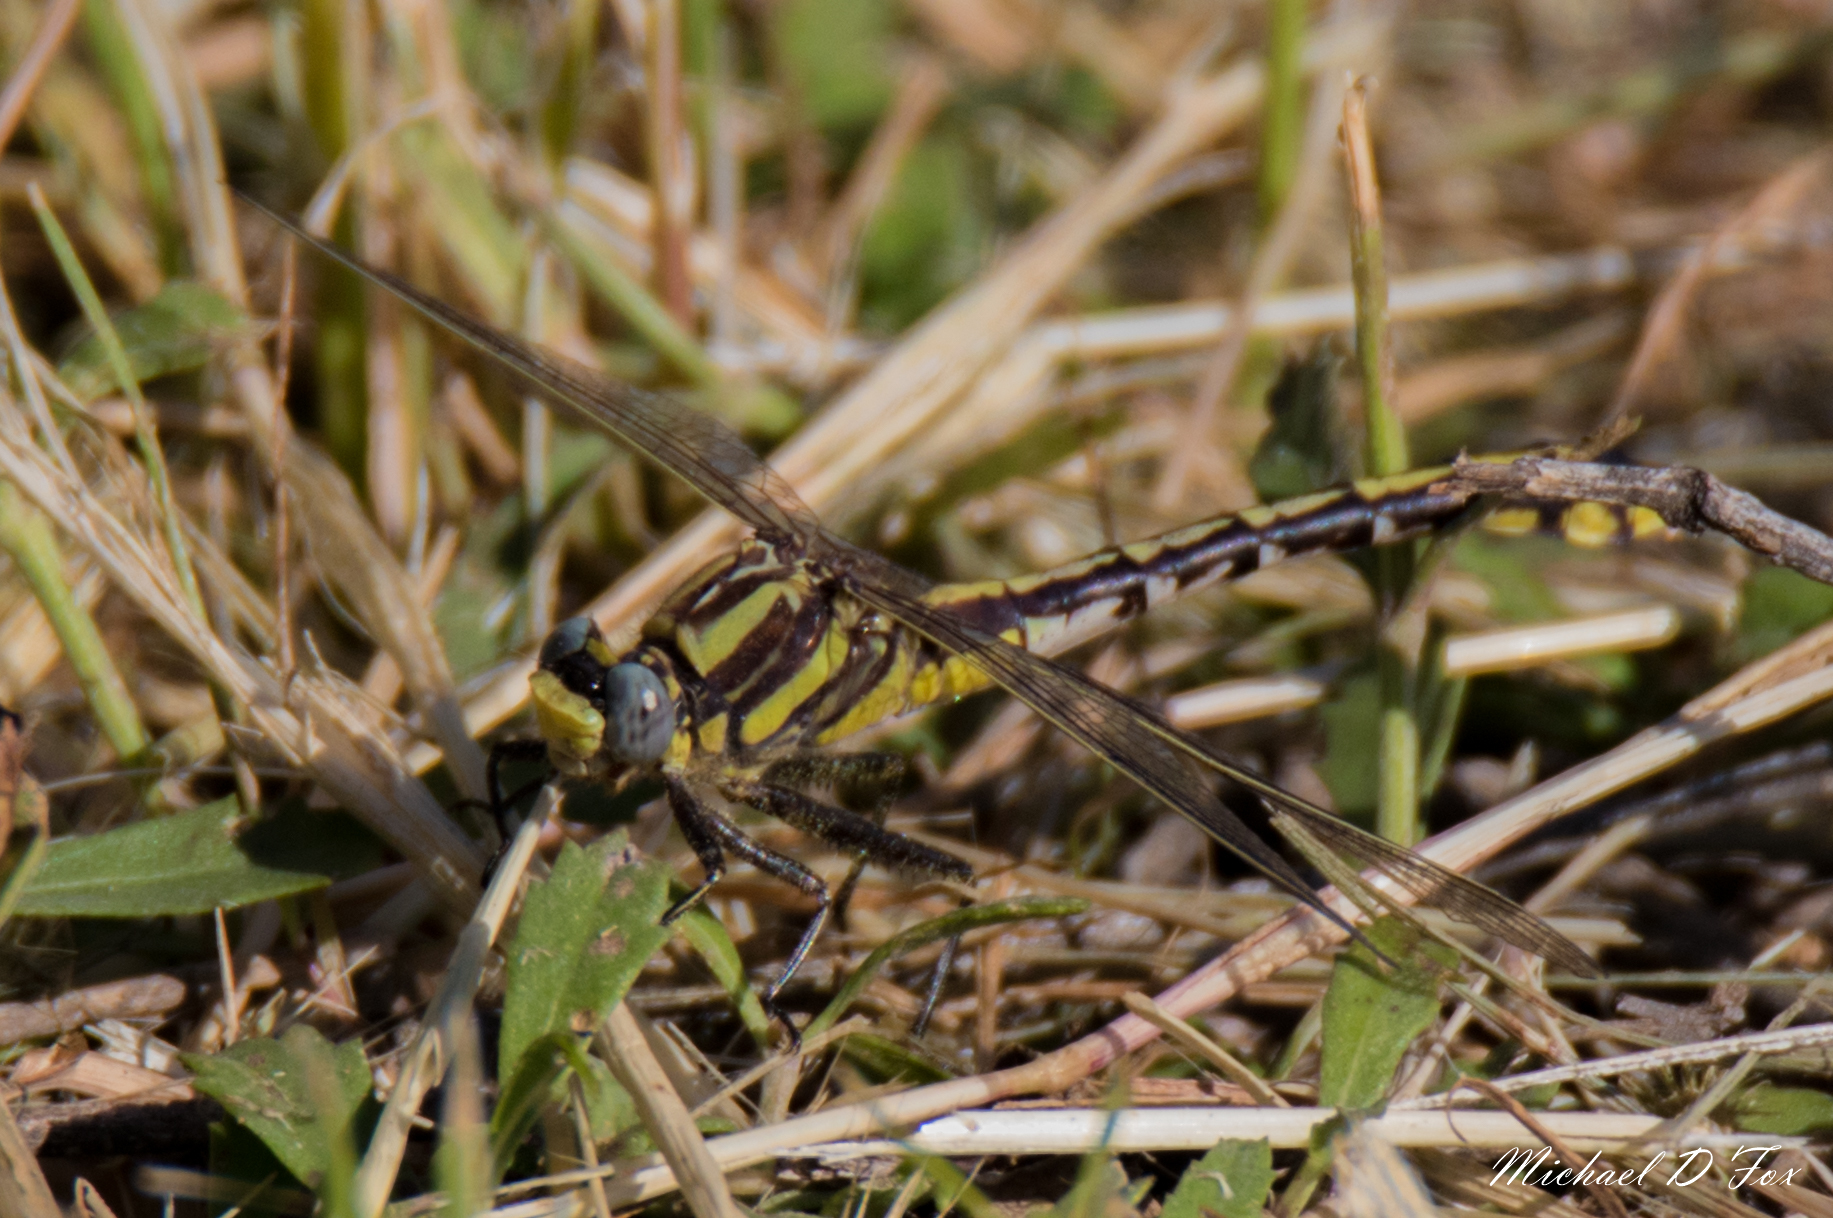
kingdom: Animalia
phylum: Arthropoda
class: Insecta
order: Odonata
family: Gomphidae
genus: Gomphurus
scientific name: Gomphurus externus
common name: Plains clubtail
